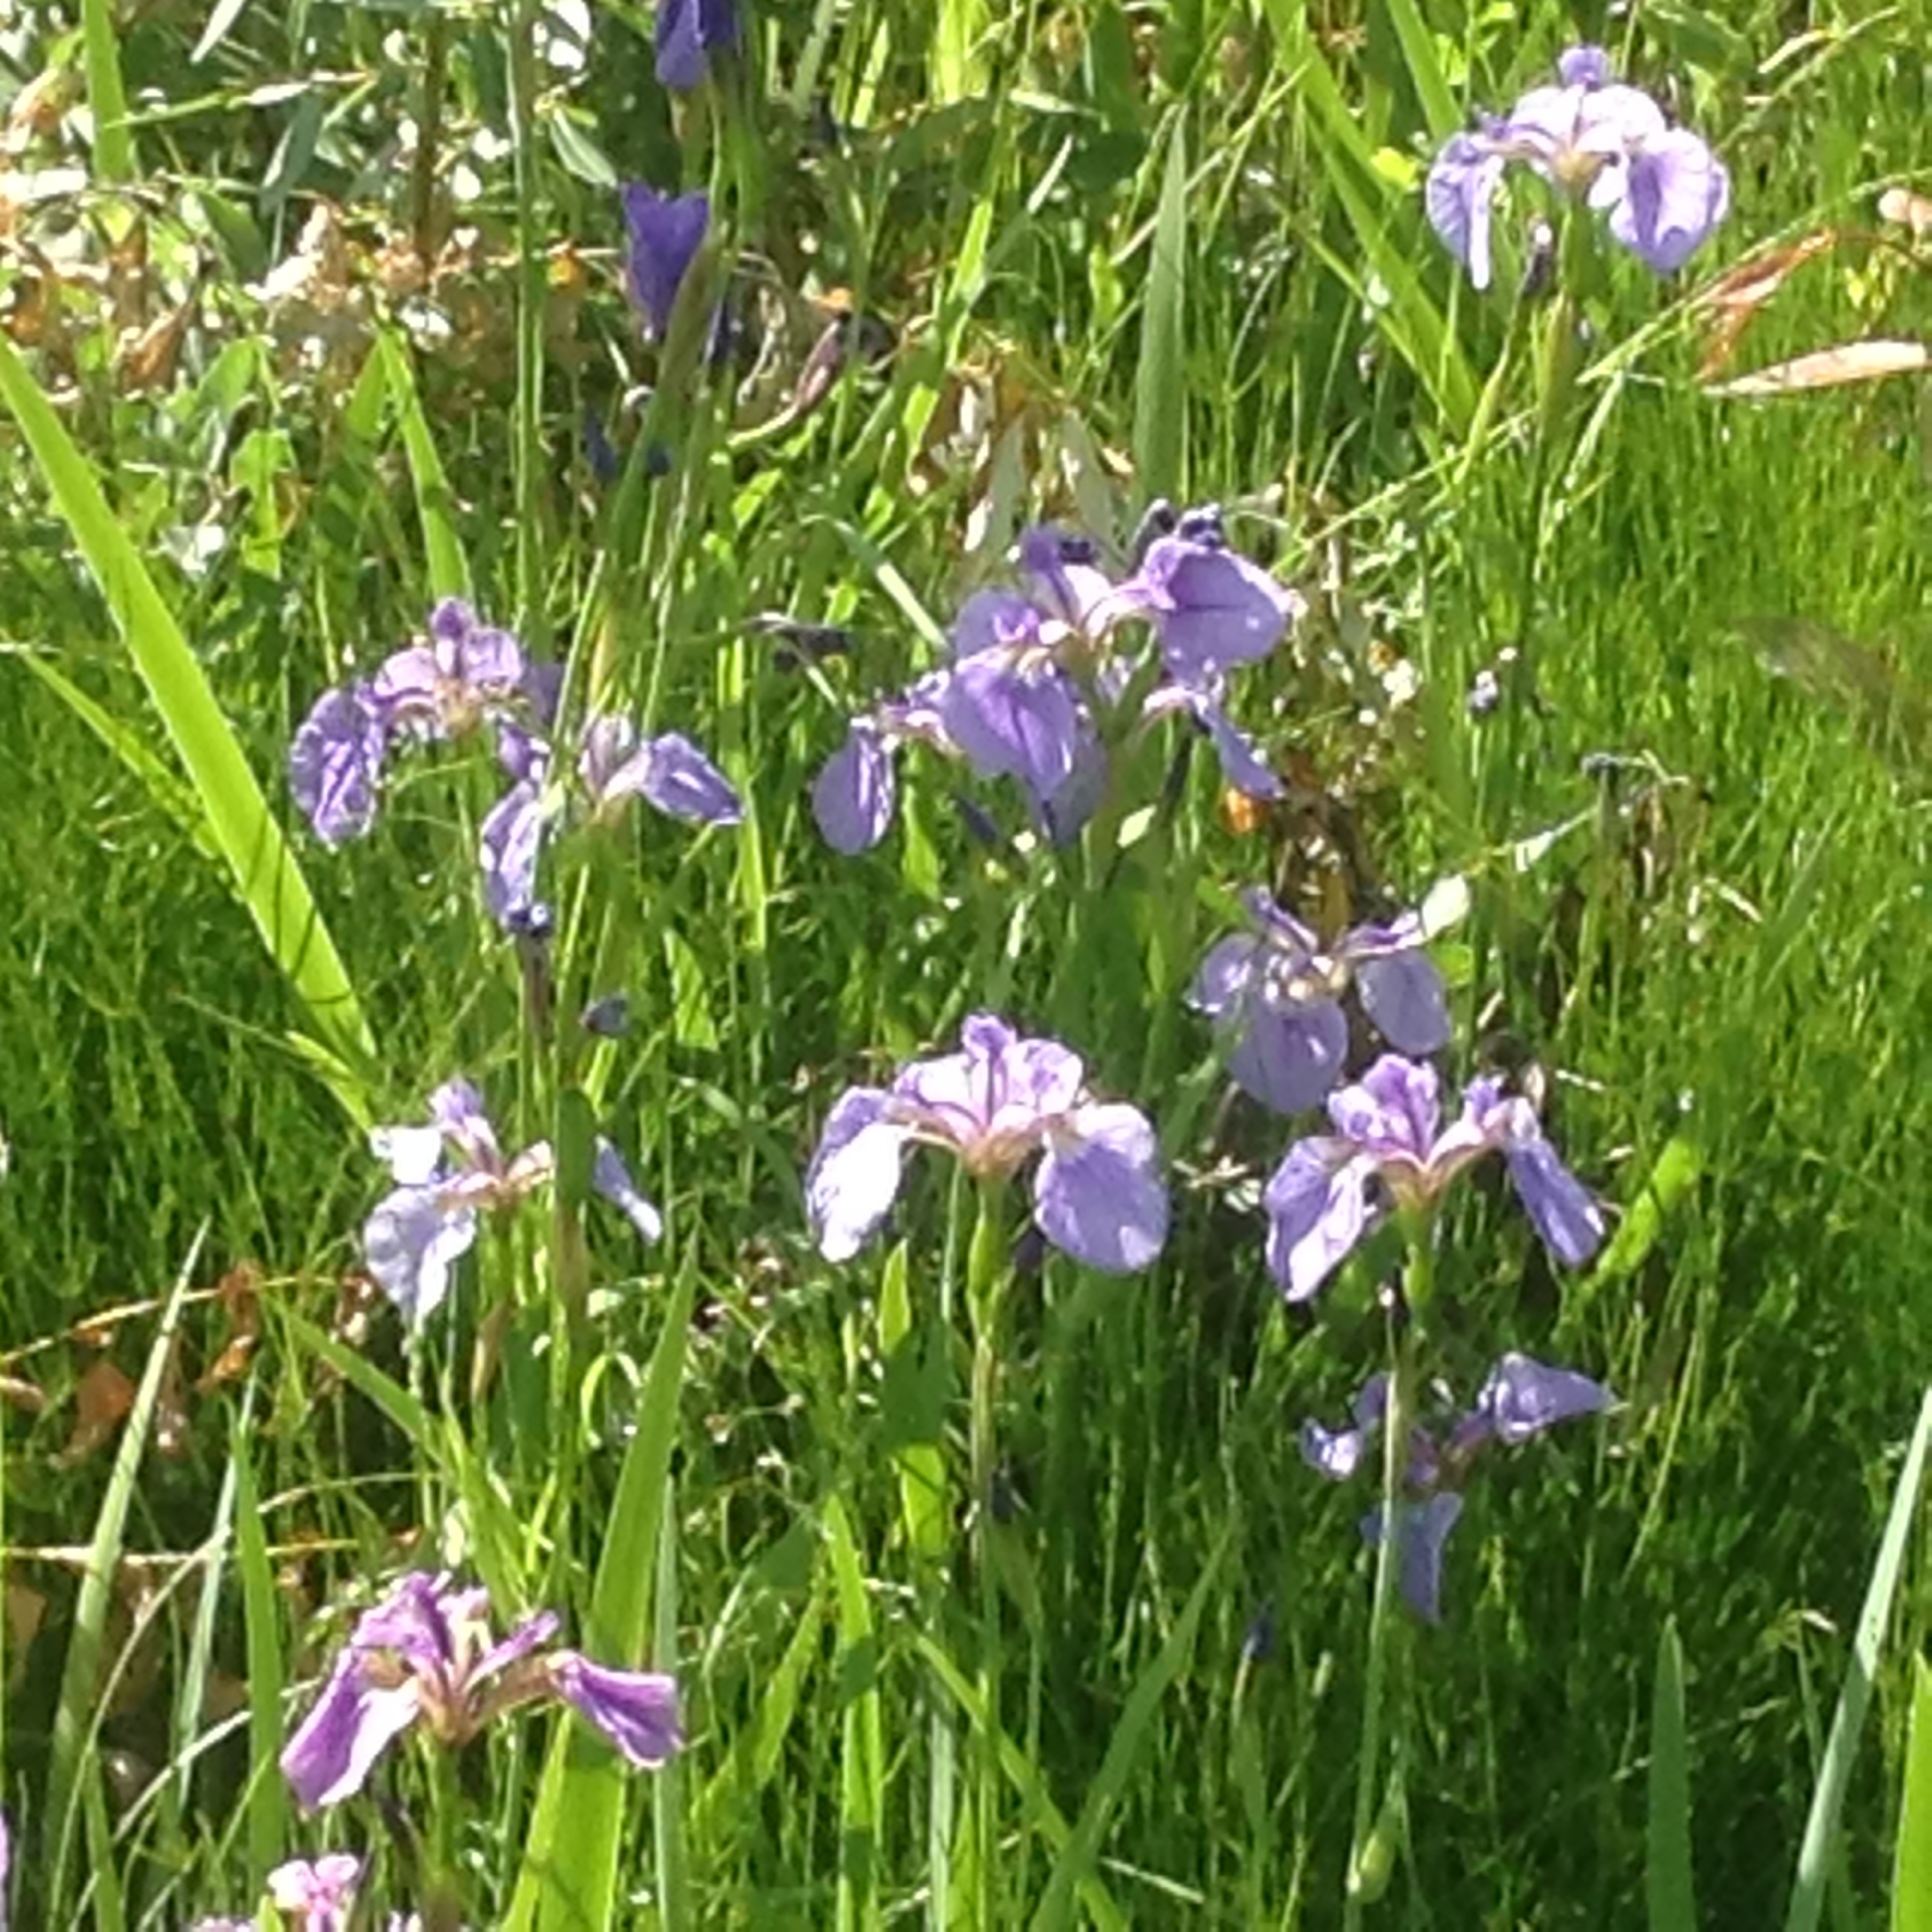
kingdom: Plantae
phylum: Tracheophyta
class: Liliopsida
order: Asparagales
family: Iridaceae
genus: Iris
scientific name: Iris setosa
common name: Arctic blue flag
